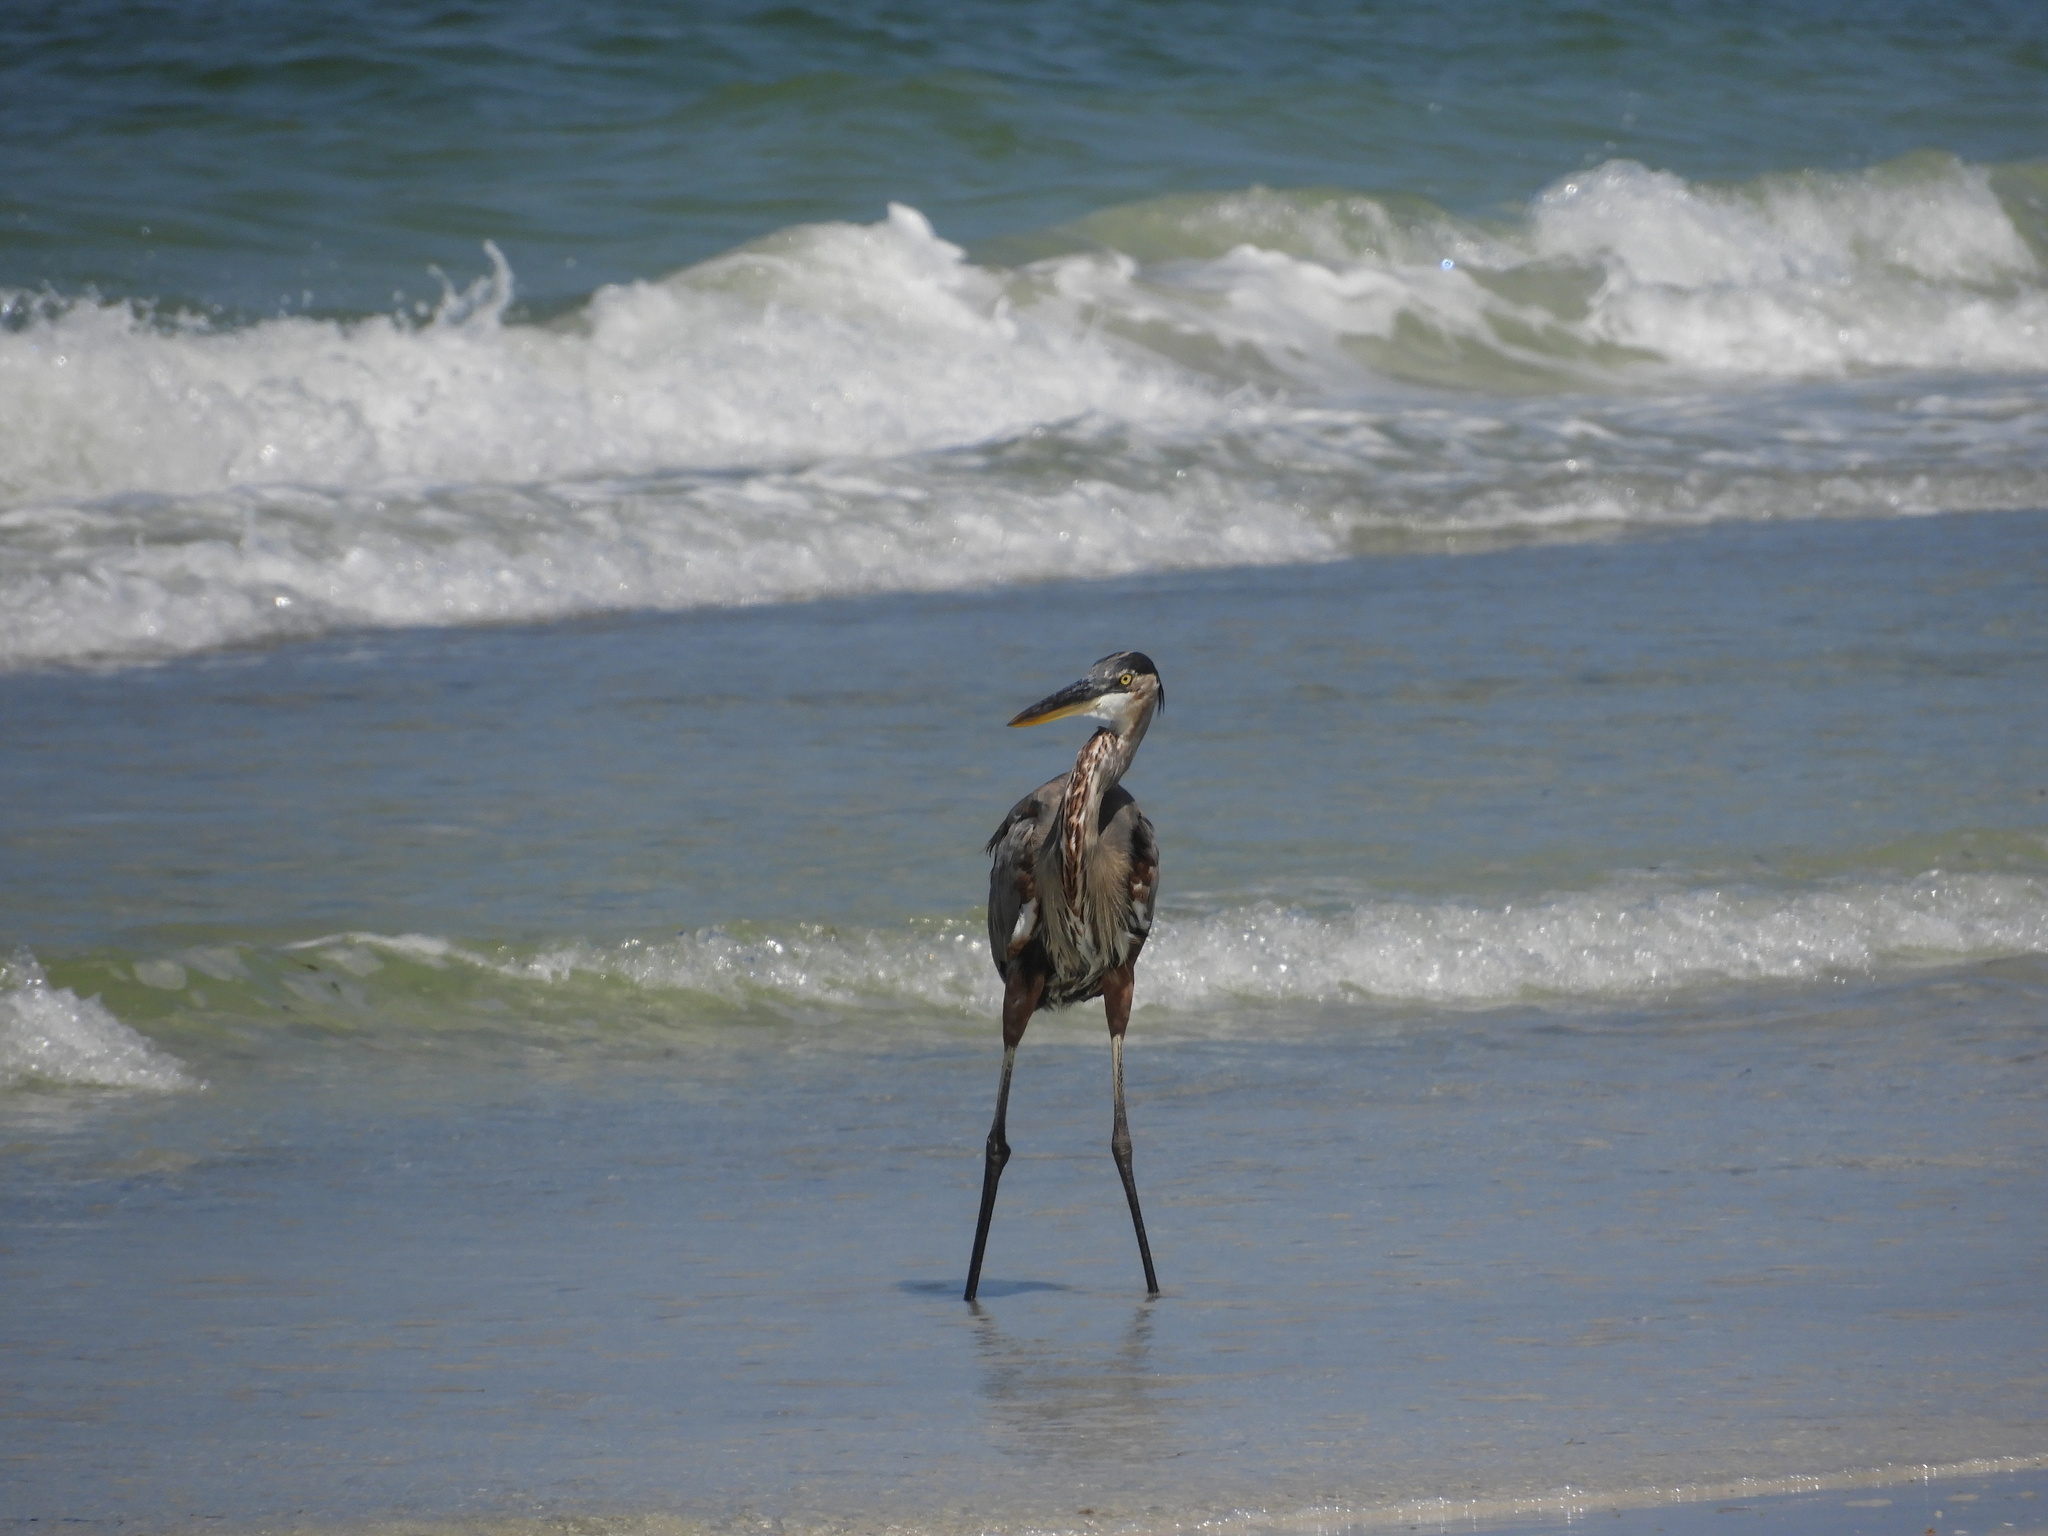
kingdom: Animalia
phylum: Chordata
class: Aves
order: Pelecaniformes
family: Ardeidae
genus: Ardea
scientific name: Ardea herodias
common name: Great blue heron
